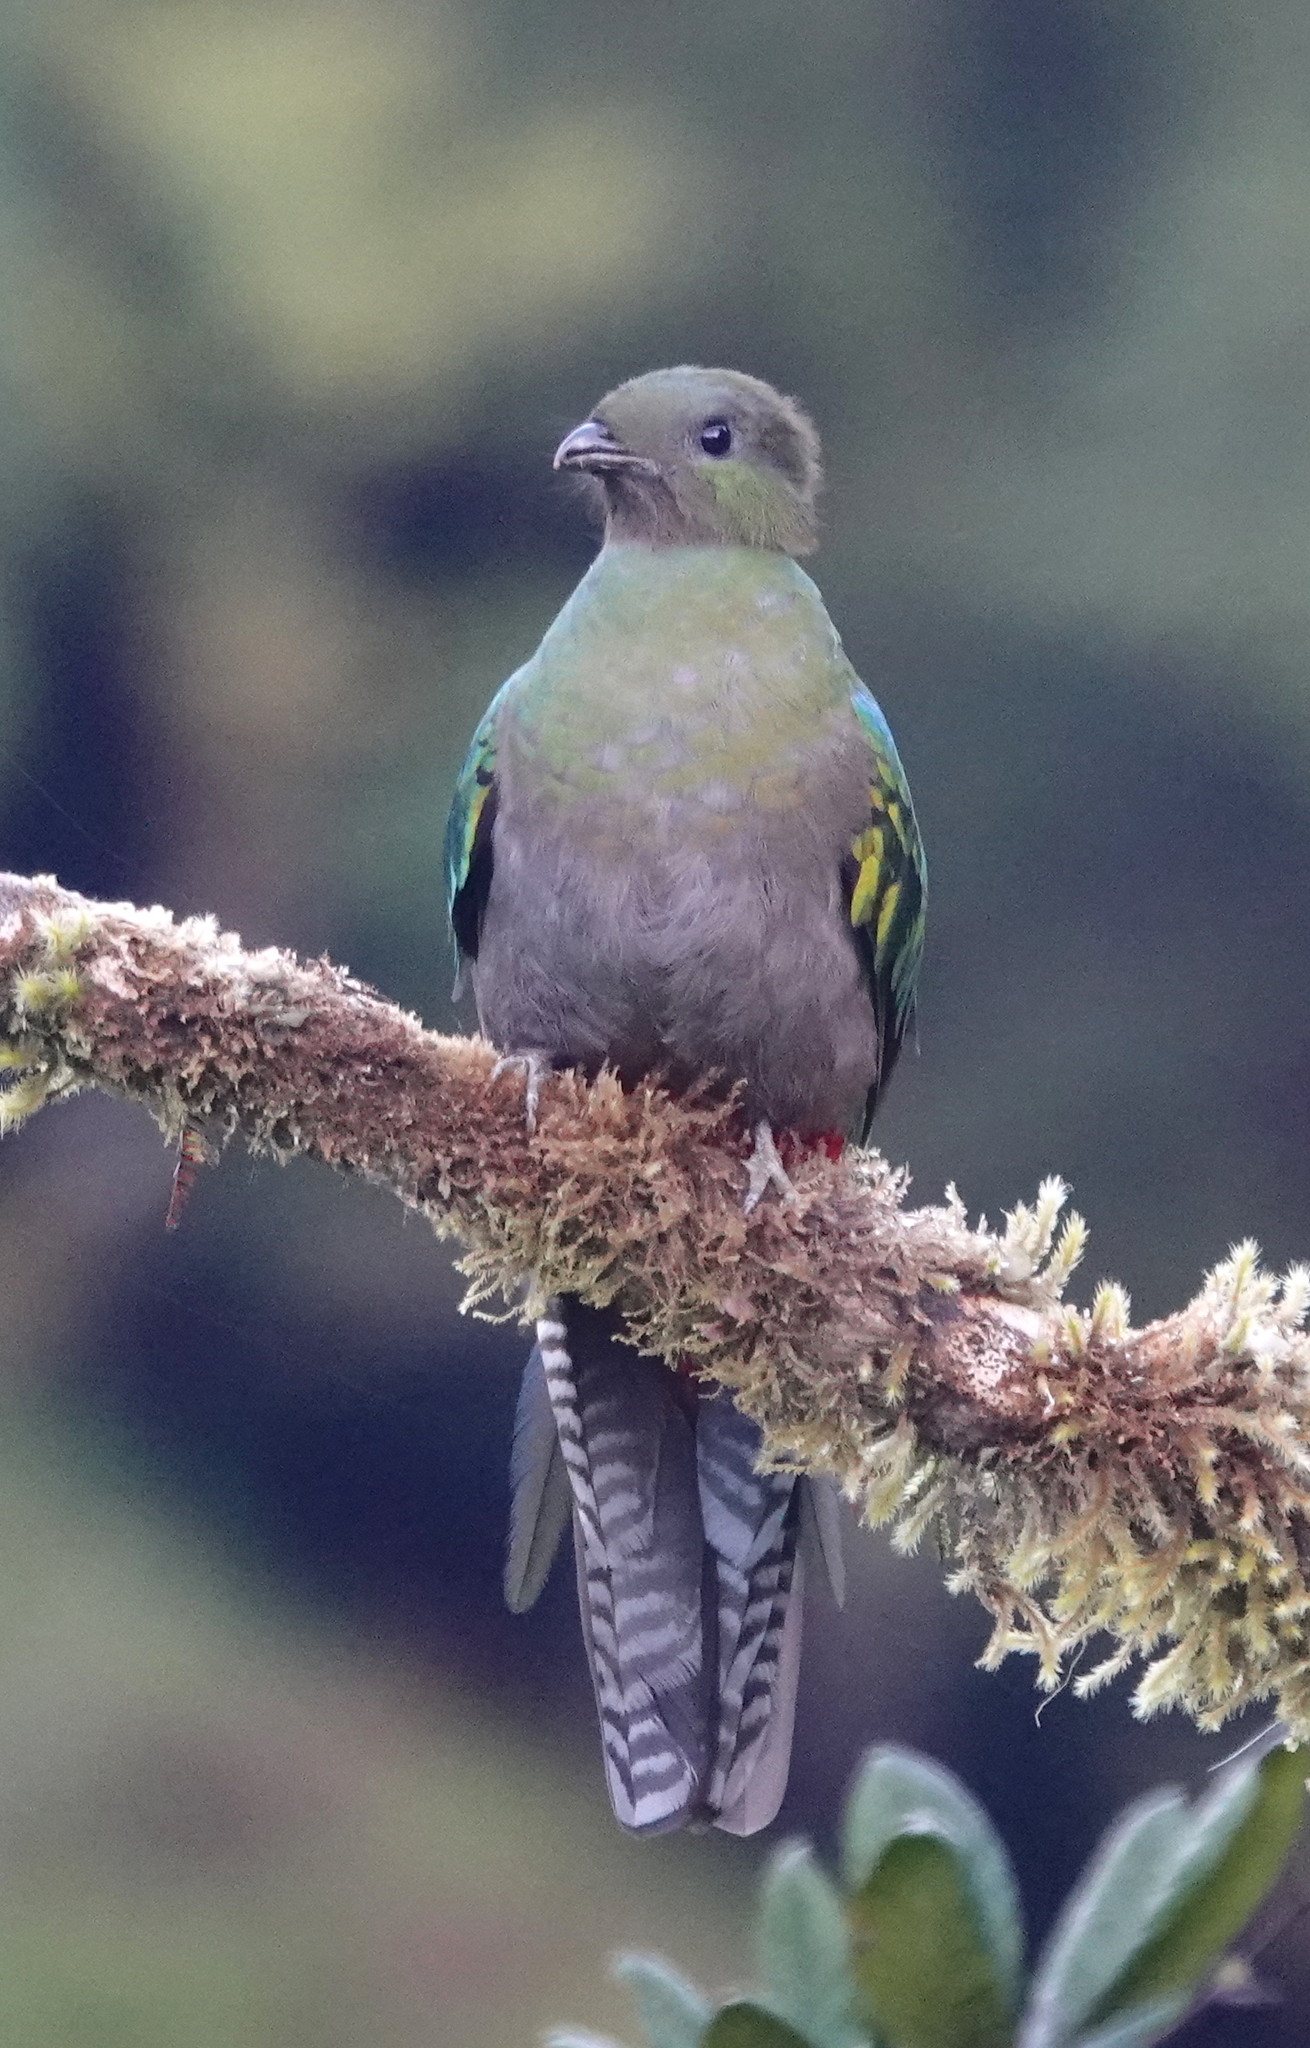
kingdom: Animalia
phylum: Chordata
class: Aves
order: Trogoniformes
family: Trogonidae
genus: Pharomachrus
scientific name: Pharomachrus mocinno
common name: Resplendent quetzal
